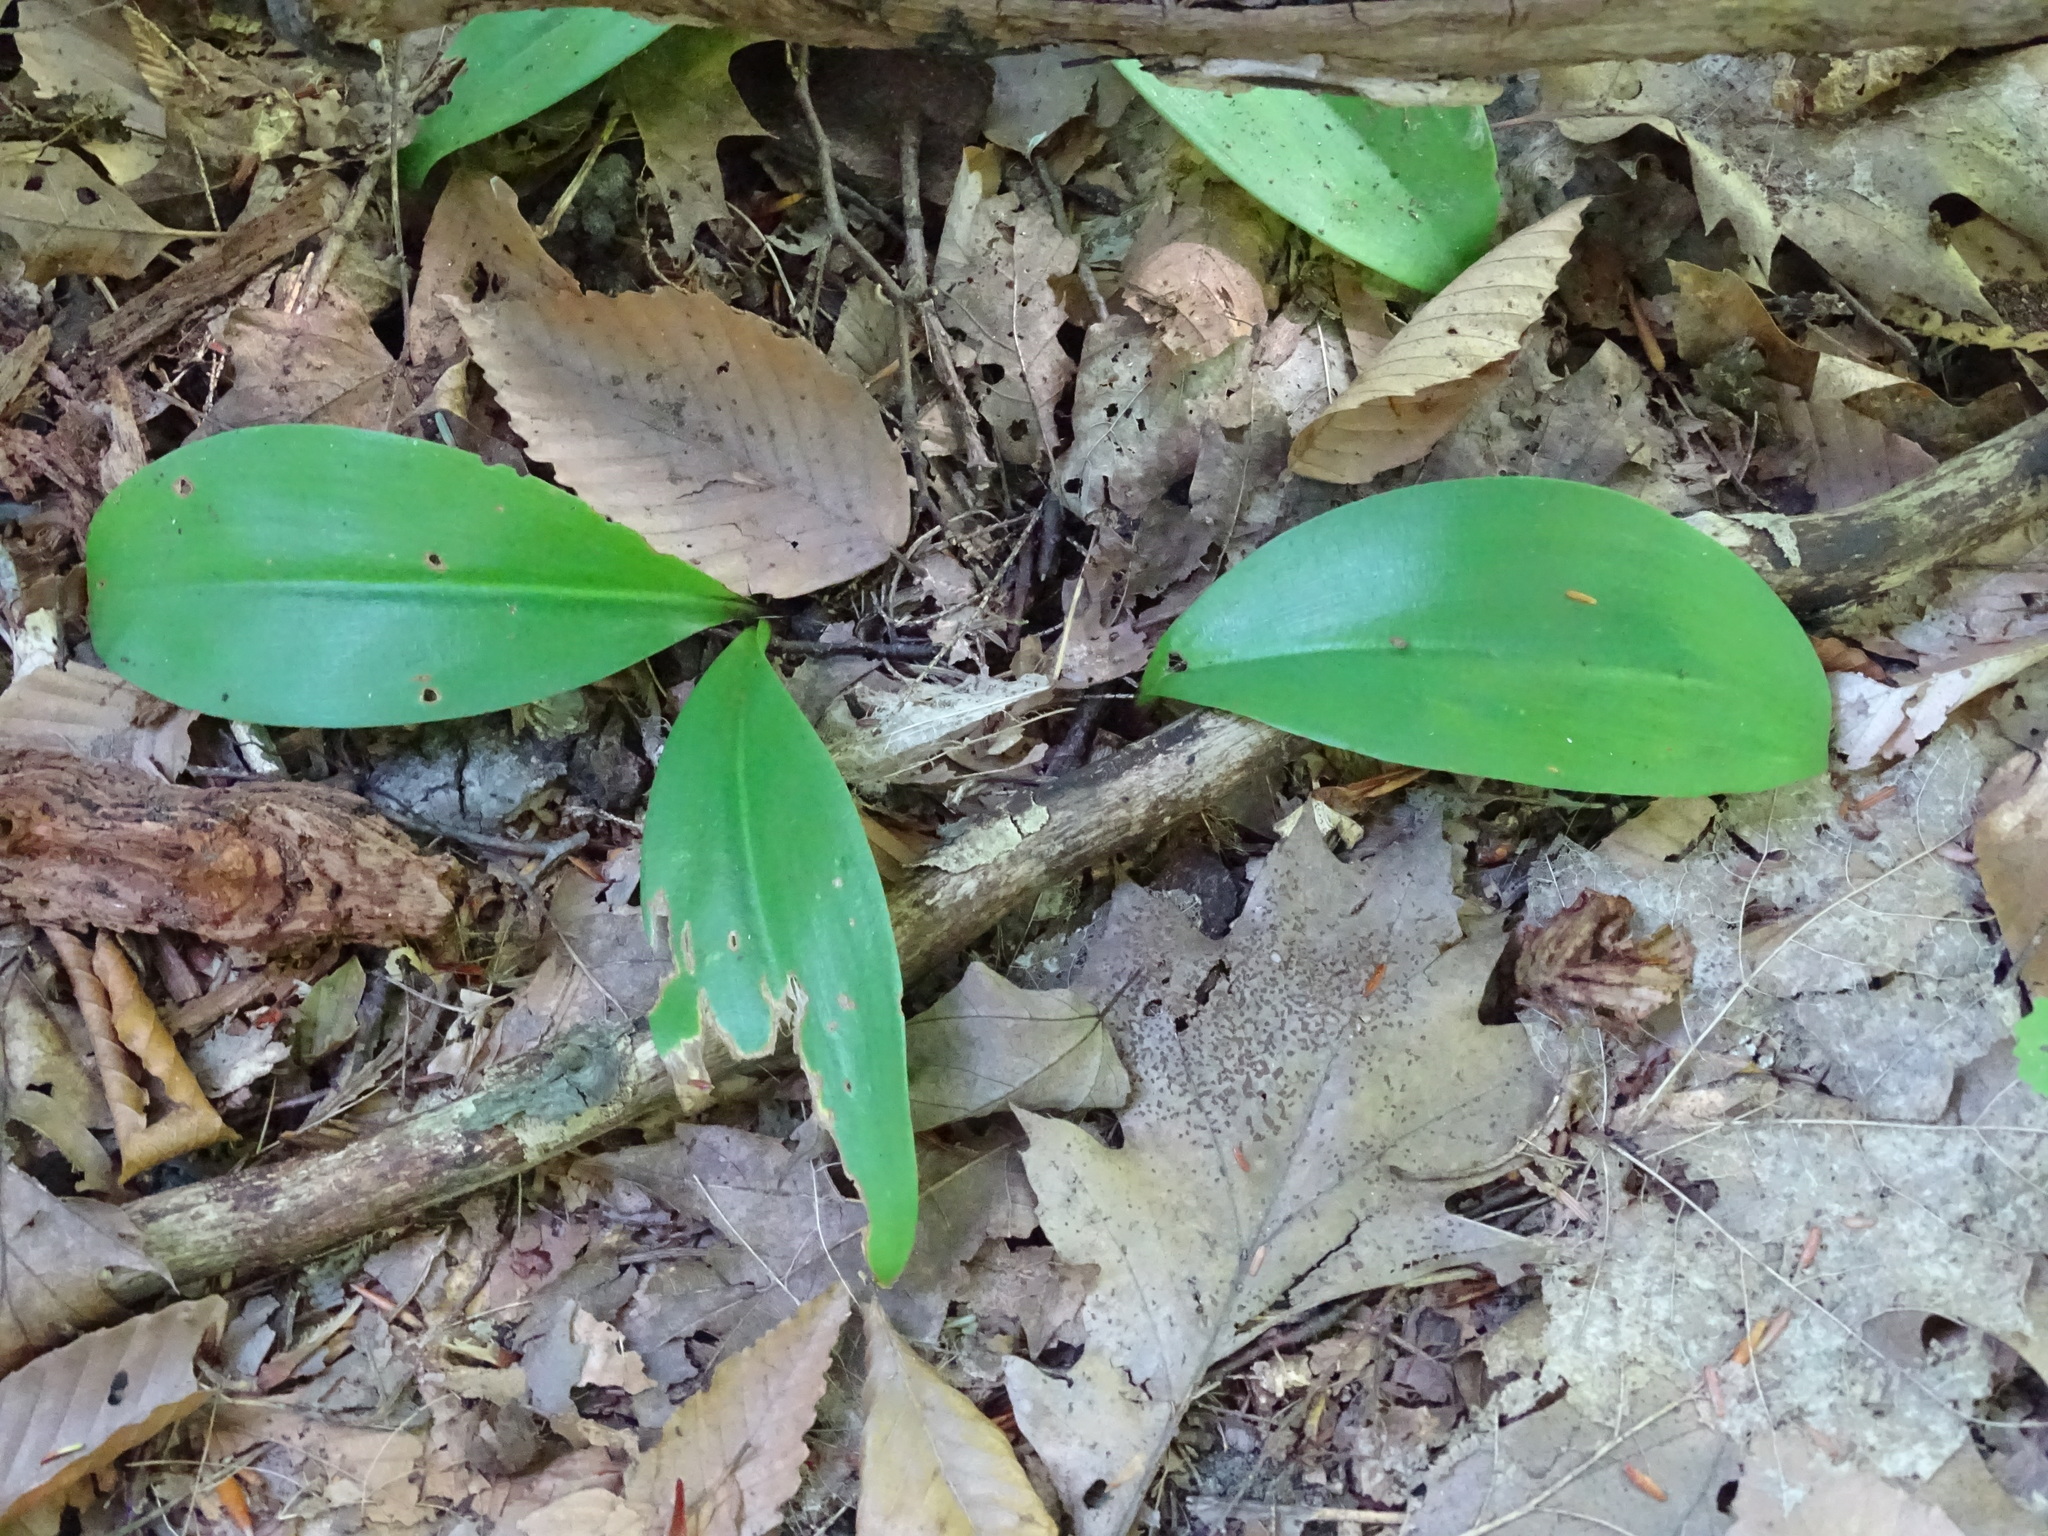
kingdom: Plantae
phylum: Tracheophyta
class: Liliopsida
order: Liliales
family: Liliaceae
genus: Clintonia
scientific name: Clintonia borealis
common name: Yellow clintonia
